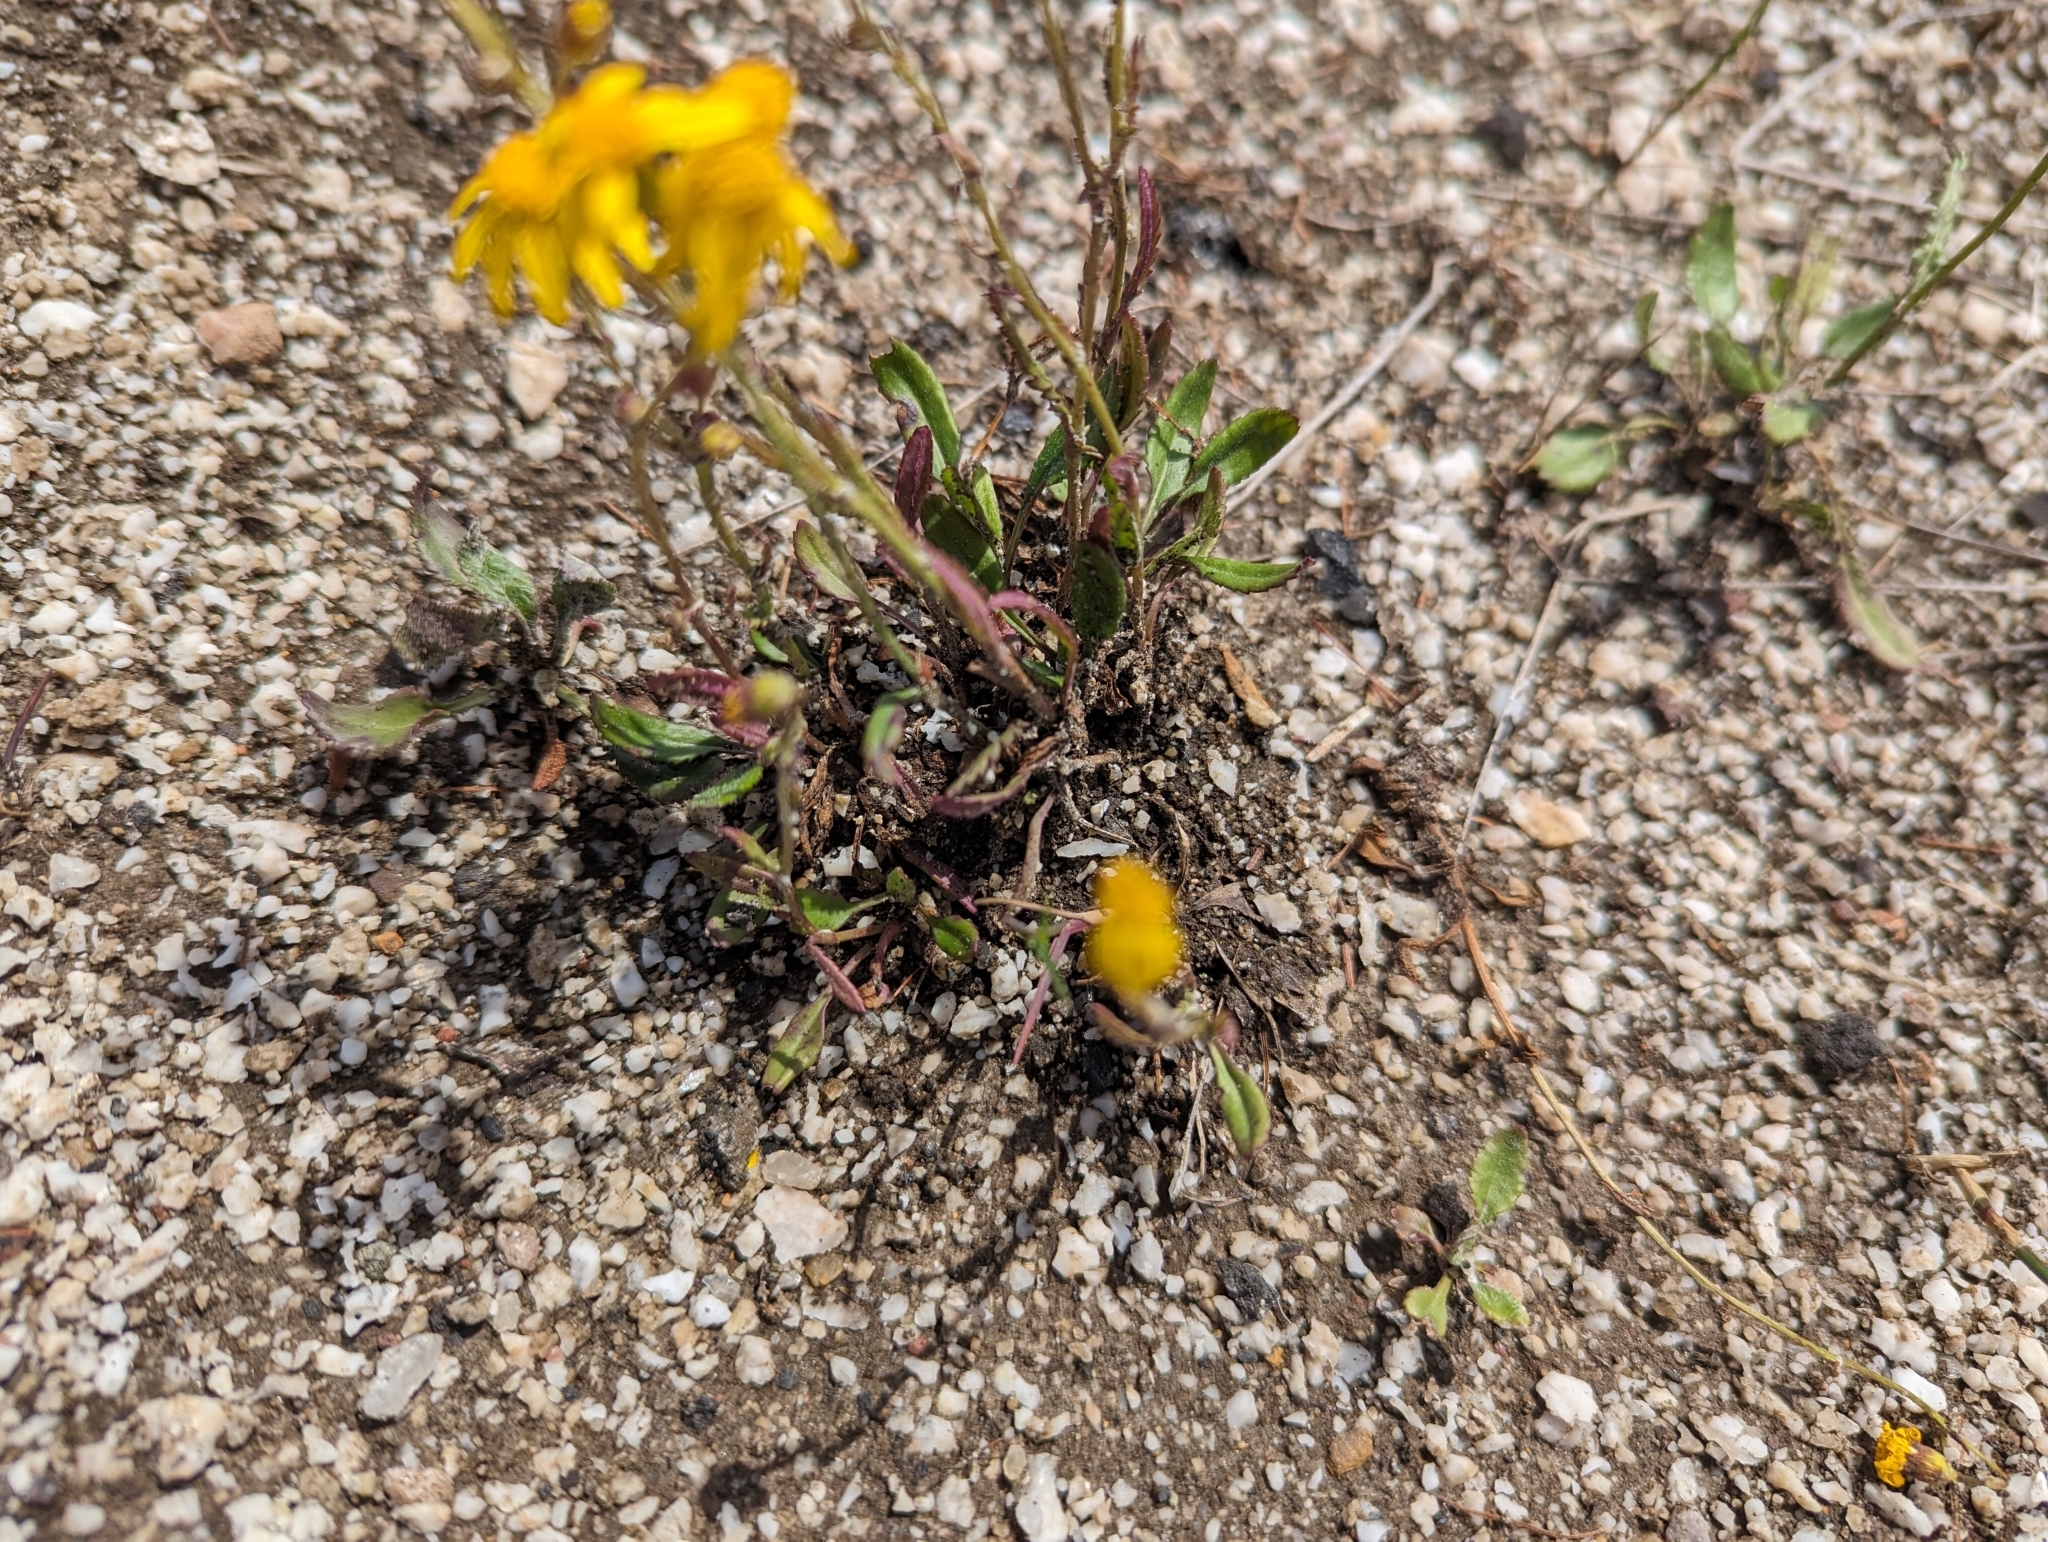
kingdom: Plantae
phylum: Tracheophyta
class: Magnoliopsida
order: Asterales
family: Asteraceae
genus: Packera
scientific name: Packera paupercula
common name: Balsam groundsel
